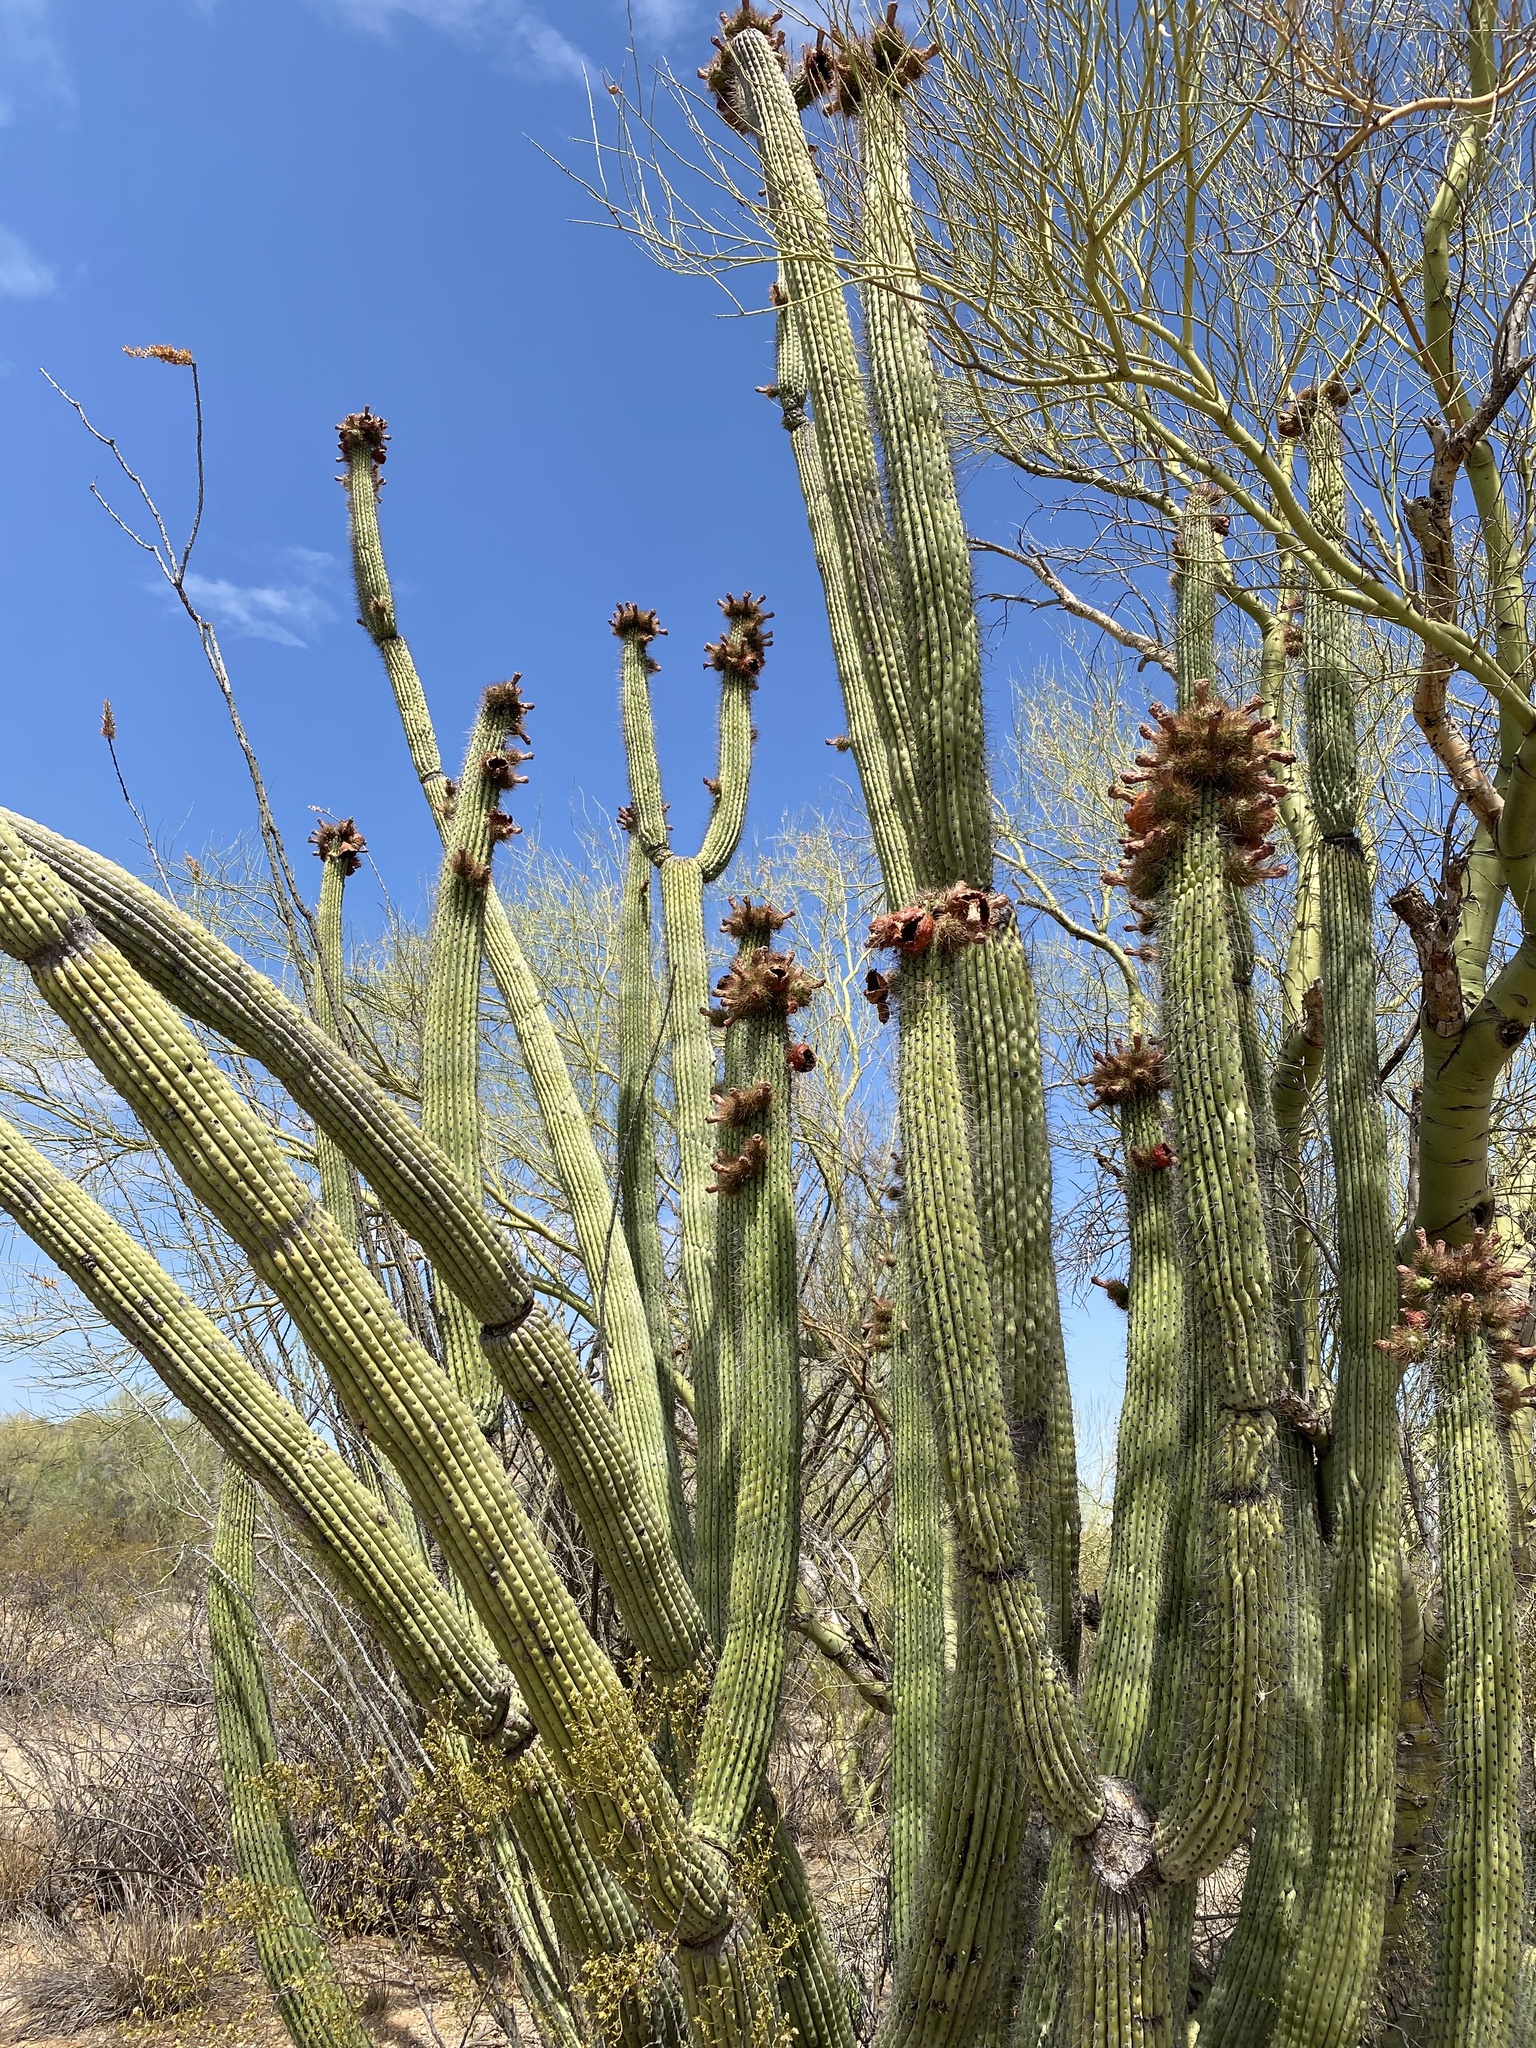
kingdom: Plantae
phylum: Tracheophyta
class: Magnoliopsida
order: Caryophyllales
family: Cactaceae
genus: Stenocereus
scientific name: Stenocereus thurberi
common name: Organ pipe cactus
